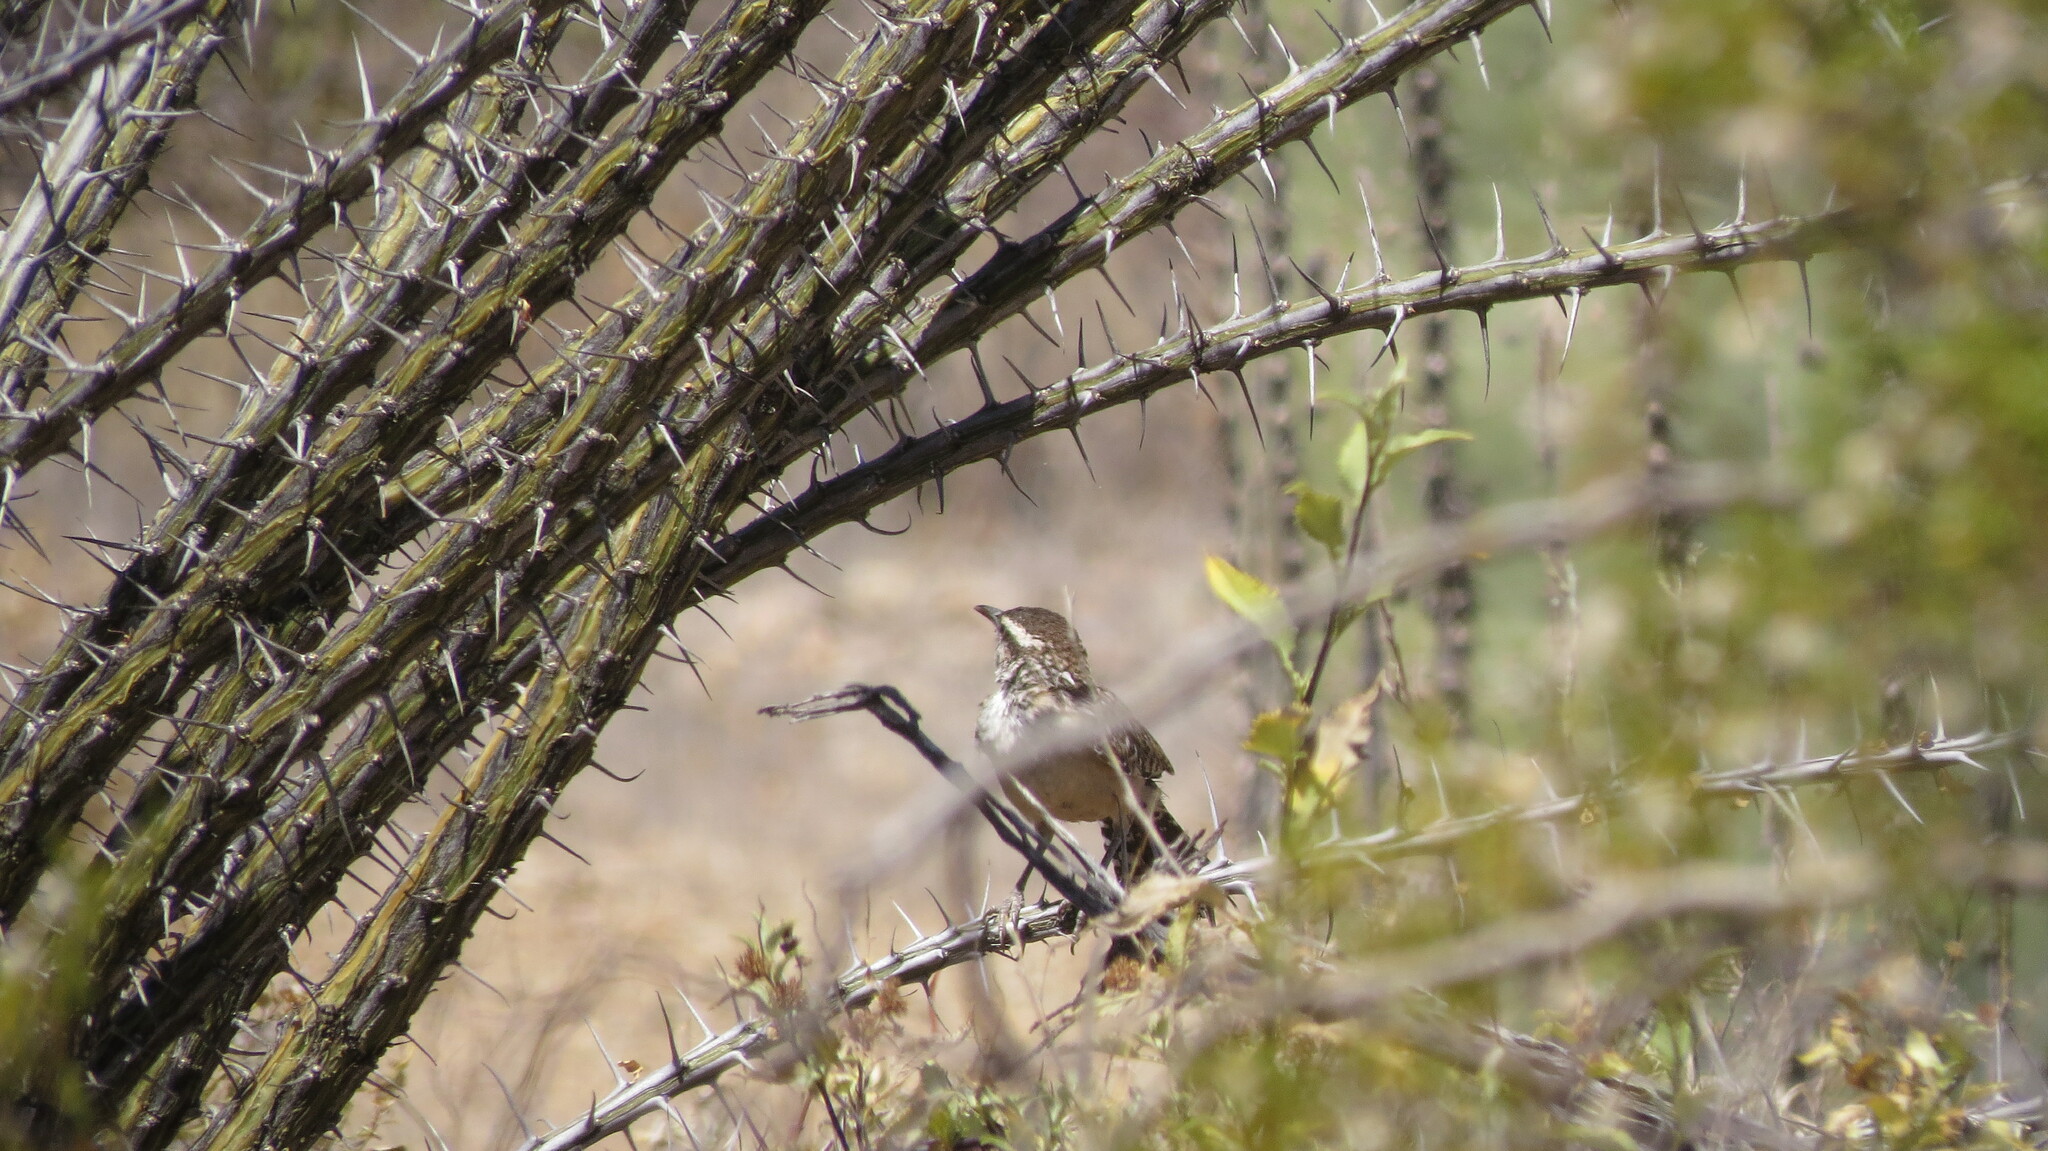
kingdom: Animalia
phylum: Chordata
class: Aves
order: Passeriformes
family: Troglodytidae
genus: Campylorhynchus
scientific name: Campylorhynchus brunneicapillus
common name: Cactus wren
